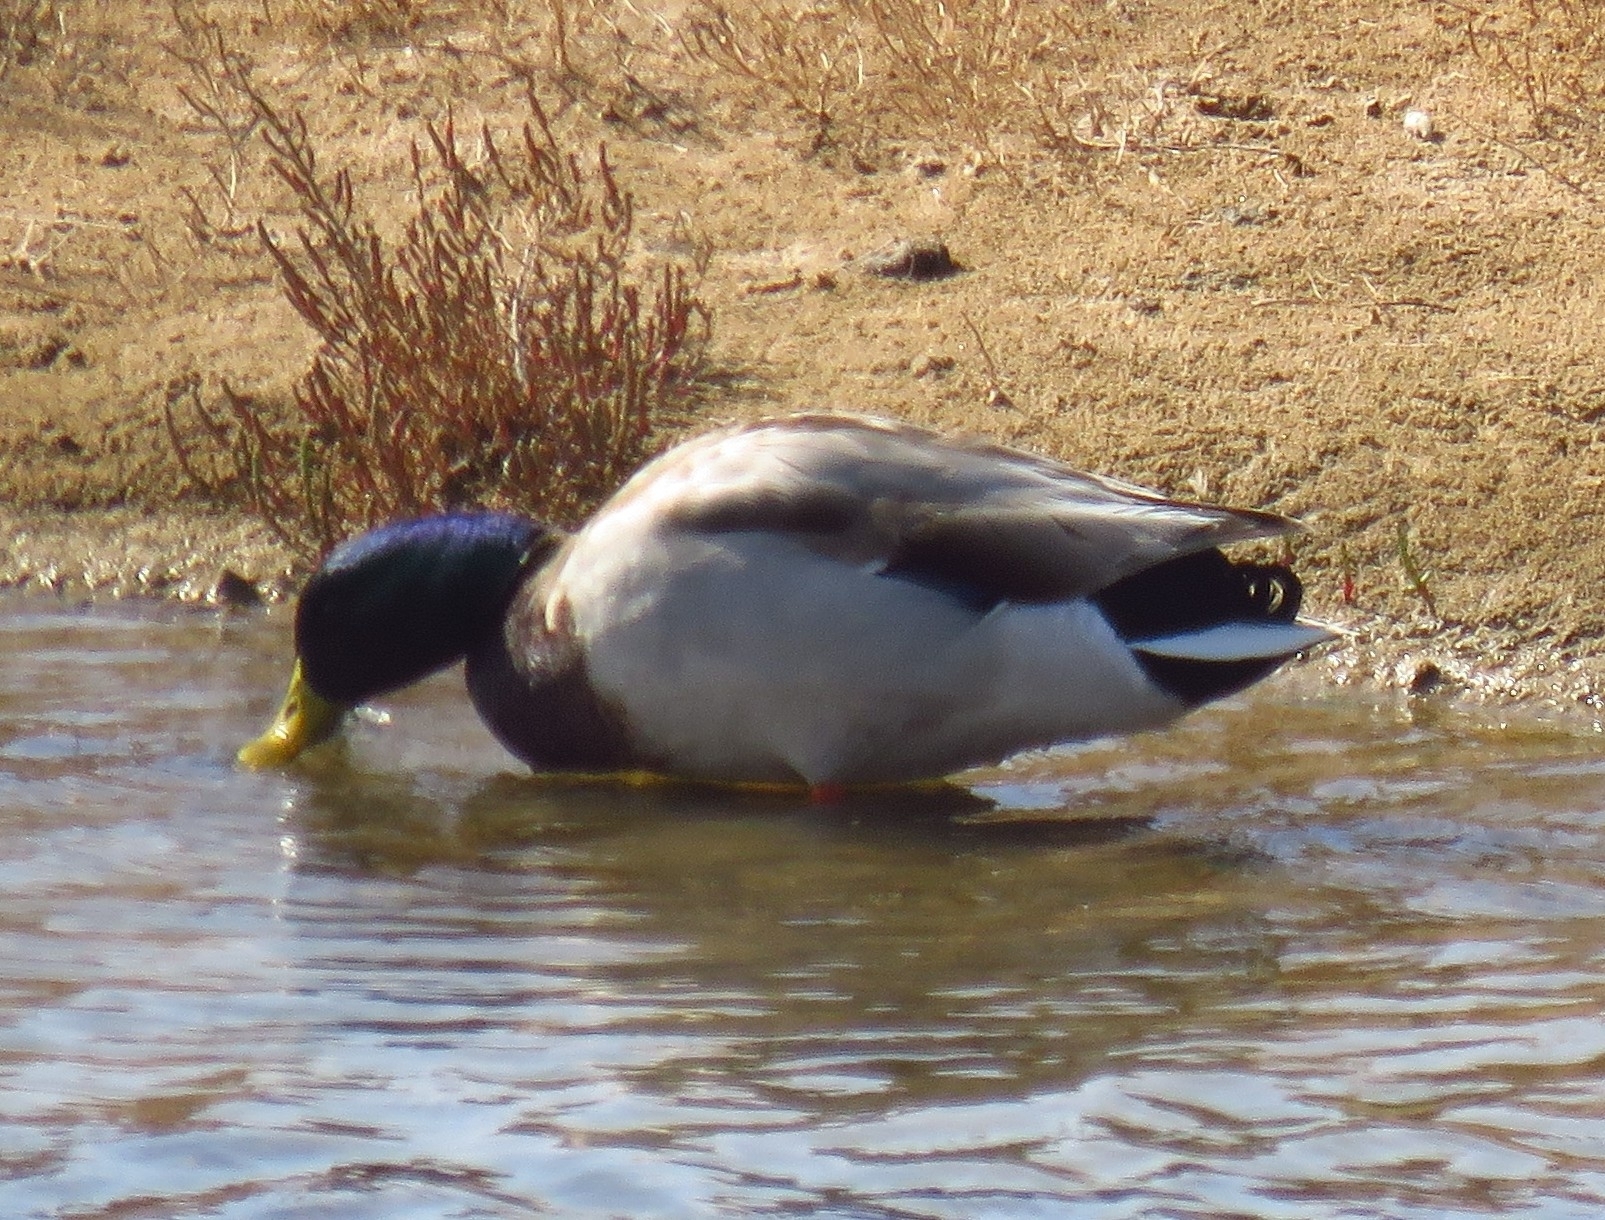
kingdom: Animalia
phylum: Chordata
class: Aves
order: Anseriformes
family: Anatidae
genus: Anas
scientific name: Anas platyrhynchos
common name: Mallard
